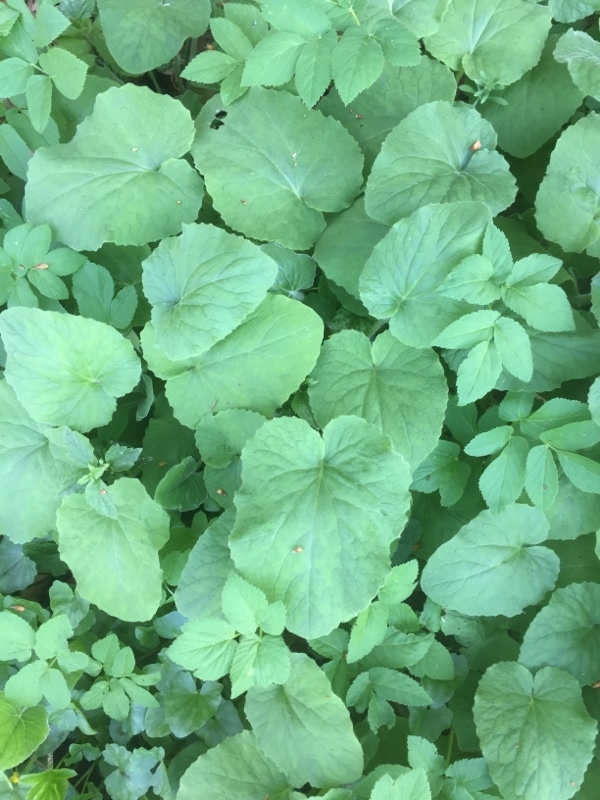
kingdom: Plantae
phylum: Tracheophyta
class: Magnoliopsida
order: Asterales
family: Asteraceae
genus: Doronicum
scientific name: Doronicum pardalianches
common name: Leopard's-bane
